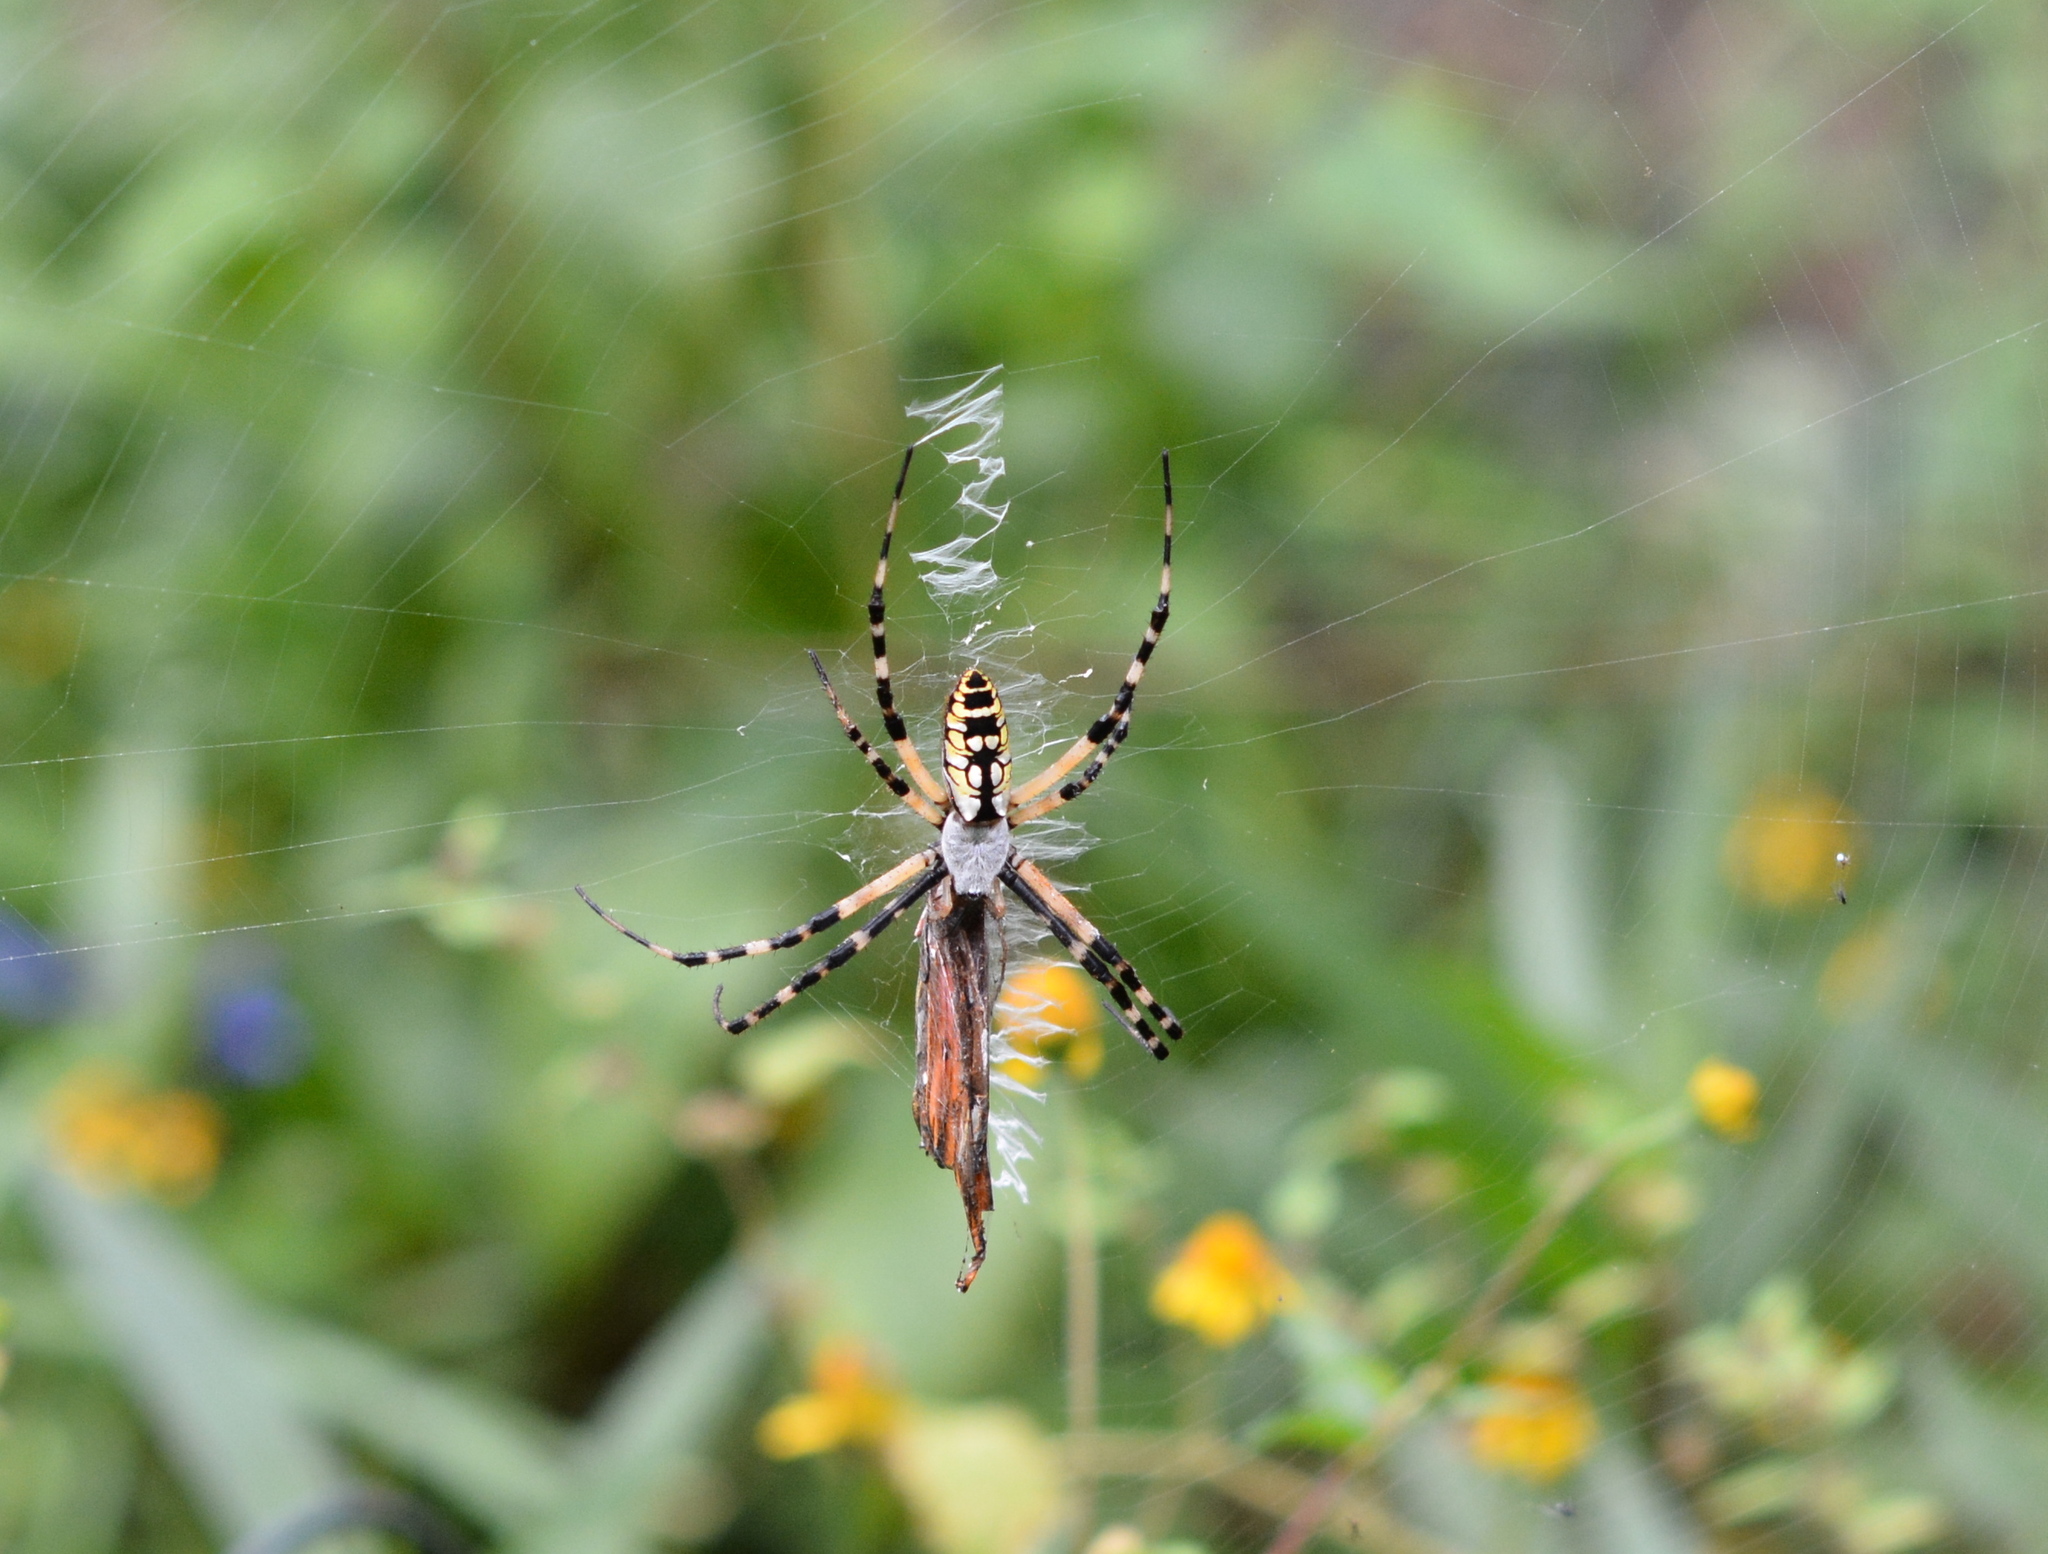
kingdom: Animalia
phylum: Arthropoda
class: Arachnida
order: Araneae
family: Araneidae
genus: Argiope
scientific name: Argiope aurantia
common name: Orb weavers
